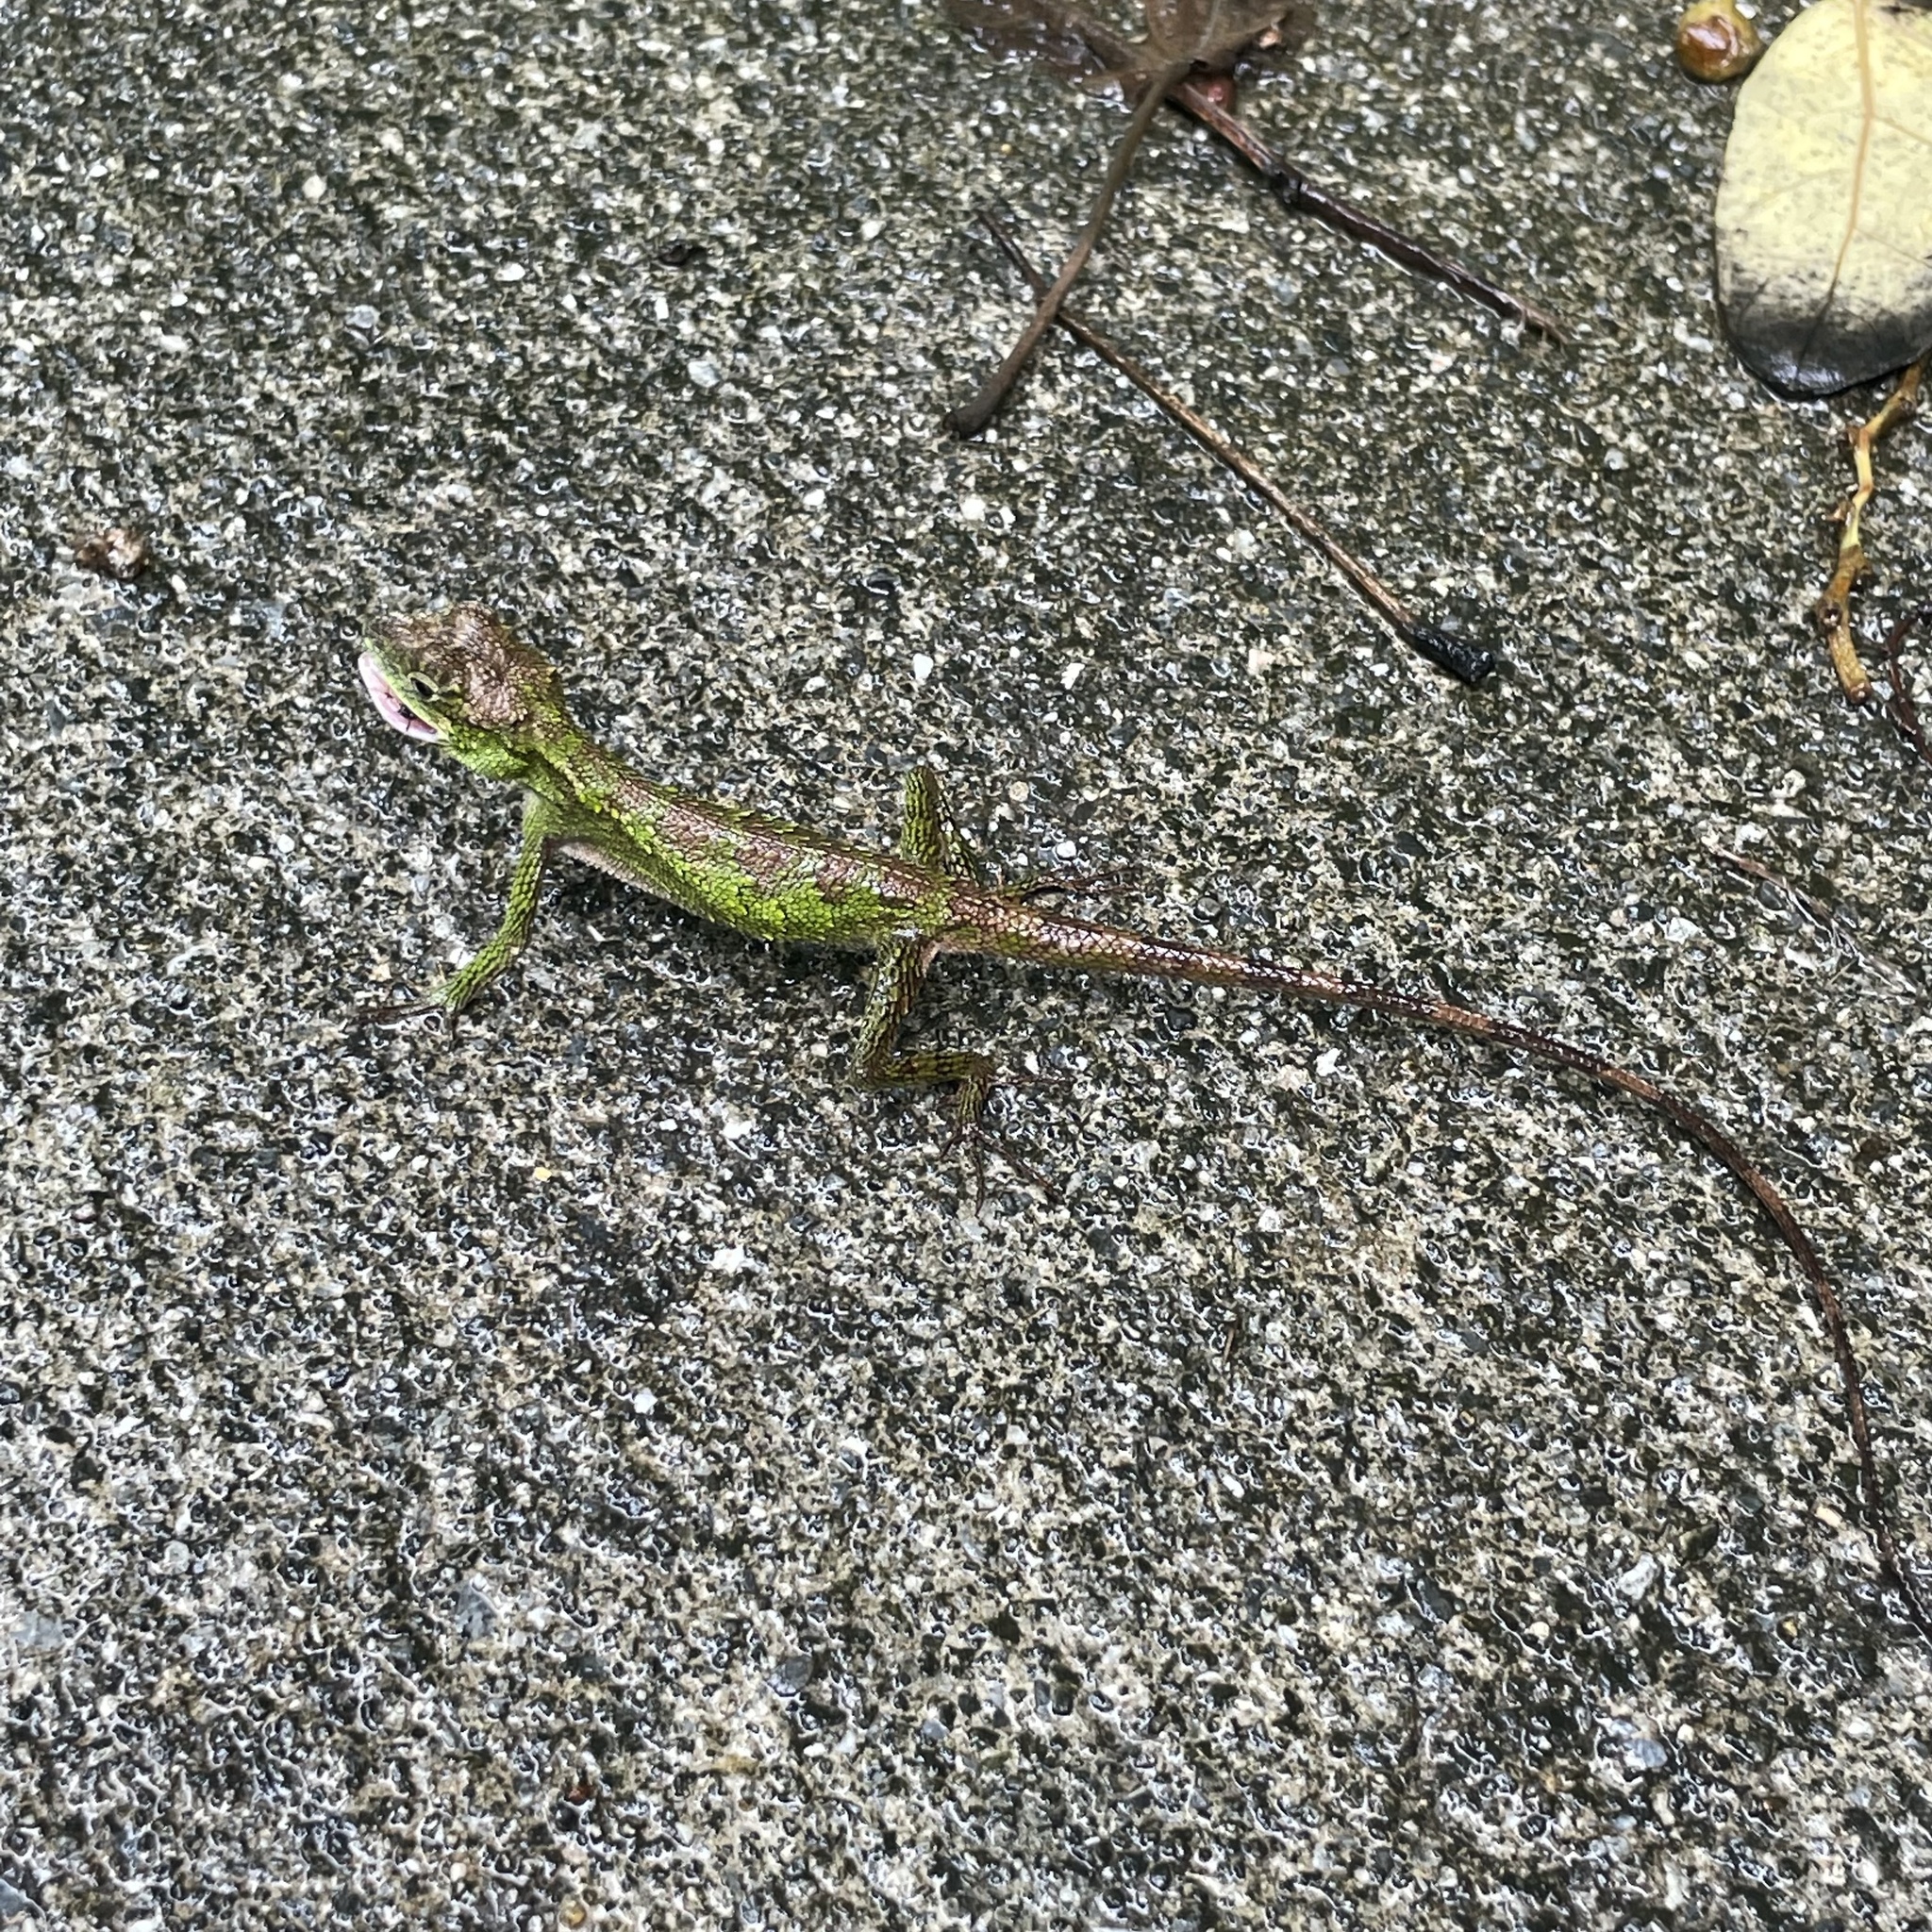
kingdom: Fungi
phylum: Basidiomycota
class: Agaricomycetes
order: Boletales
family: Diplocystidiaceae
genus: Diploderma
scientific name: Diploderma polygonatum
